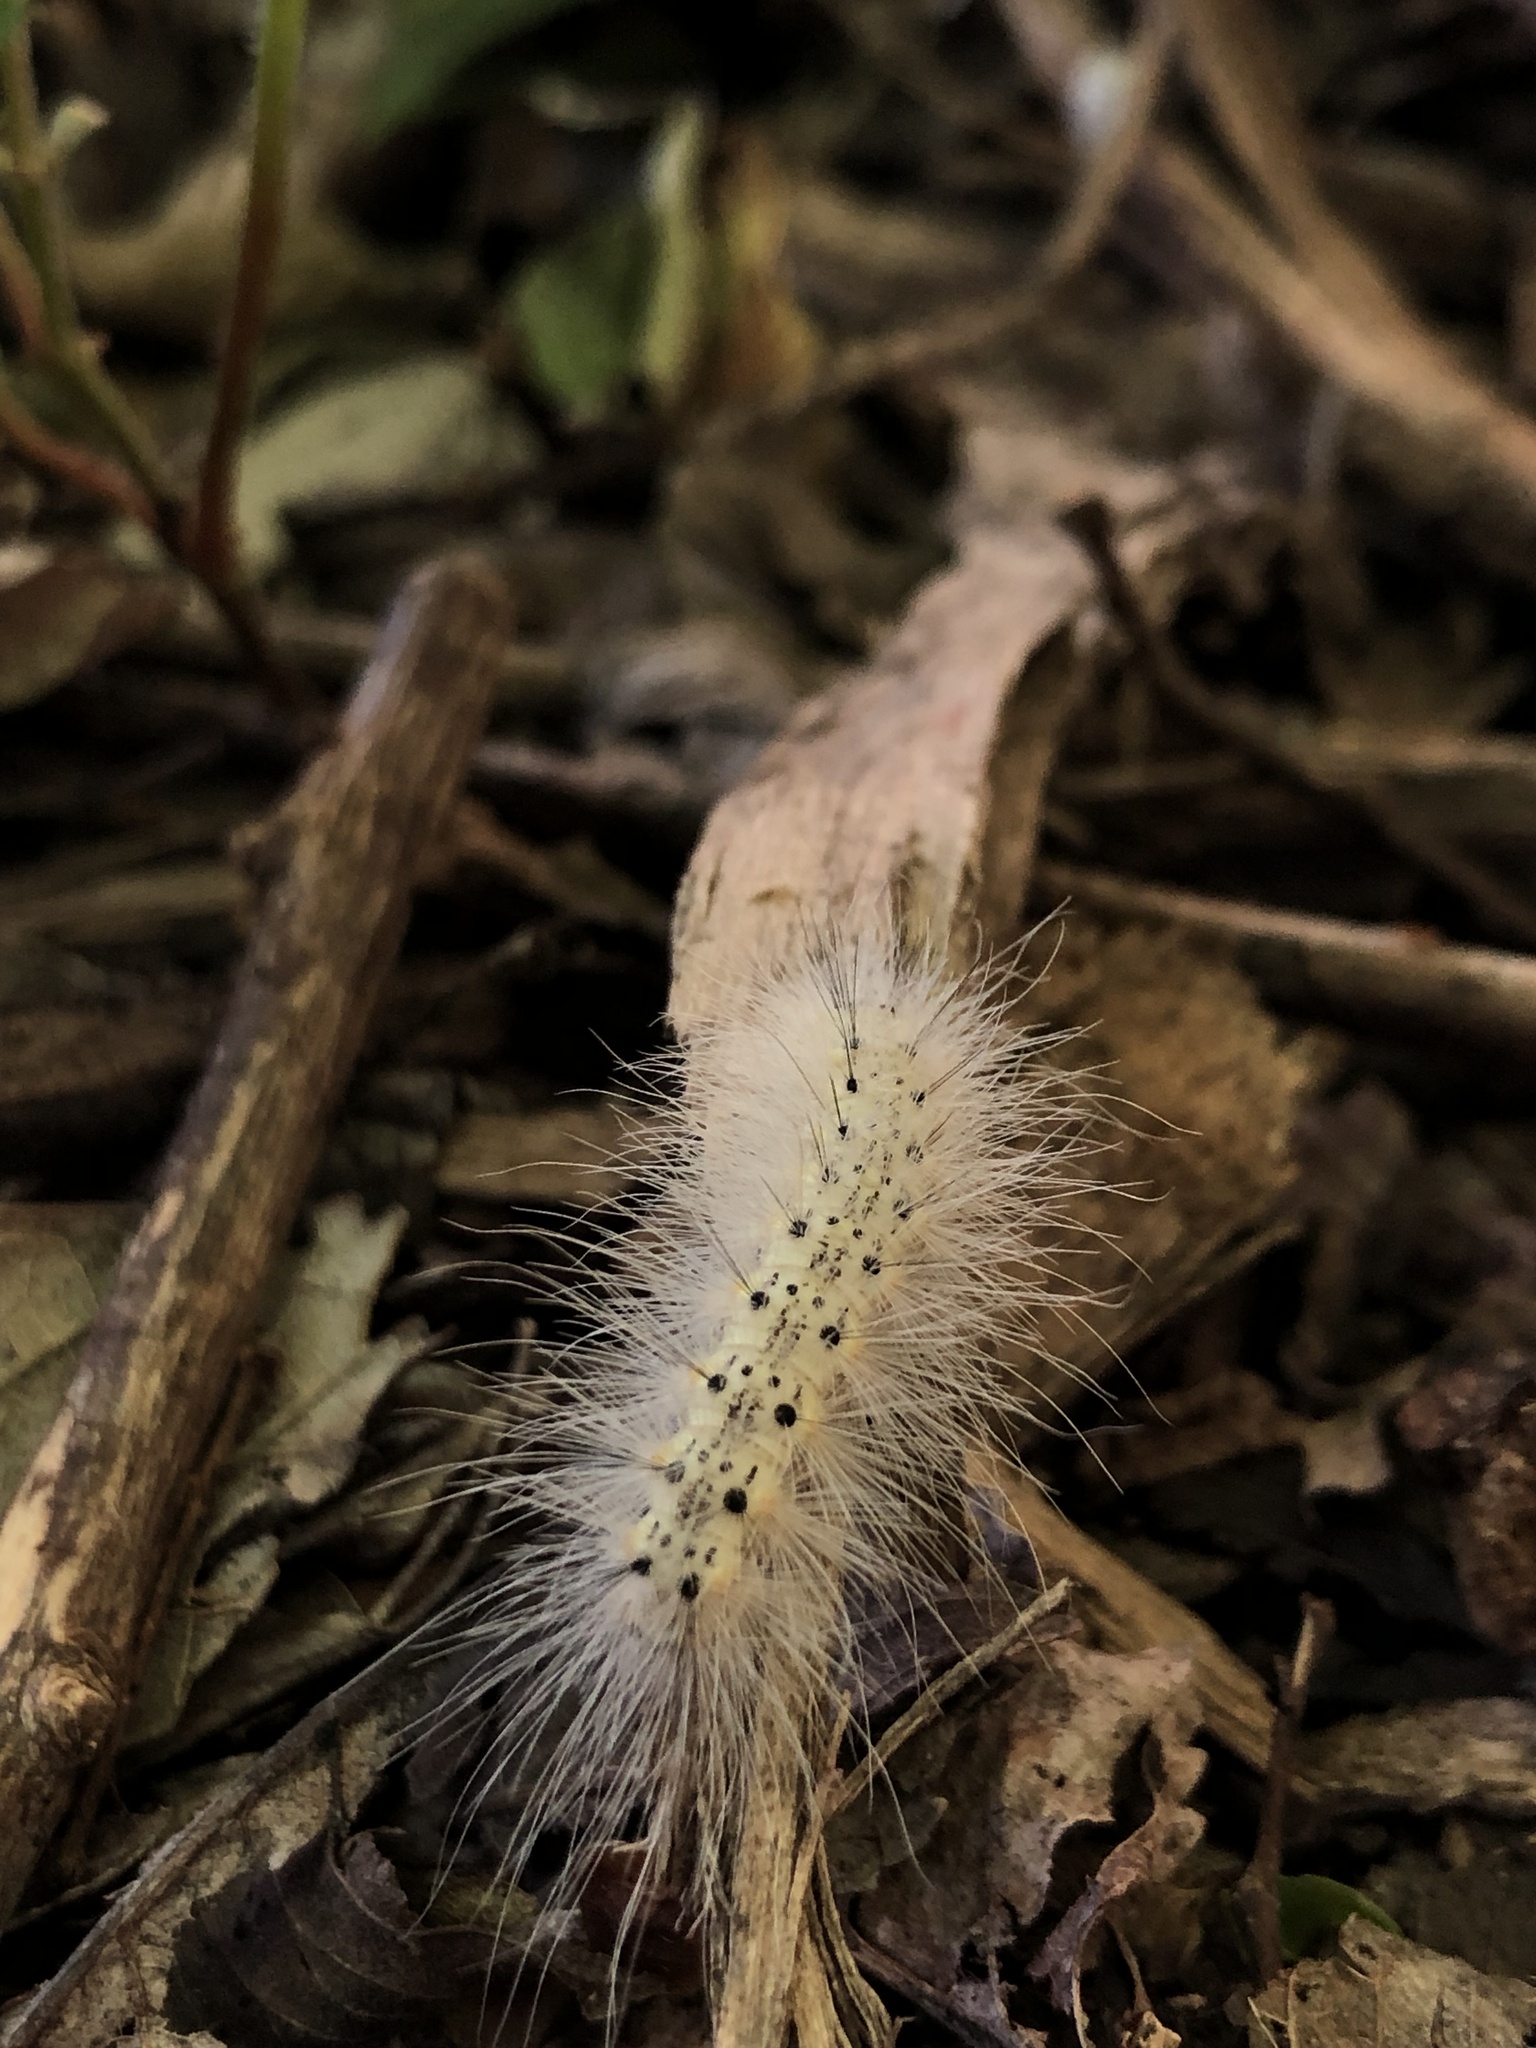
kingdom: Animalia
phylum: Arthropoda
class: Insecta
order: Lepidoptera
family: Erebidae
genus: Hyphantria
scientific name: Hyphantria cunea
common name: American white moth
